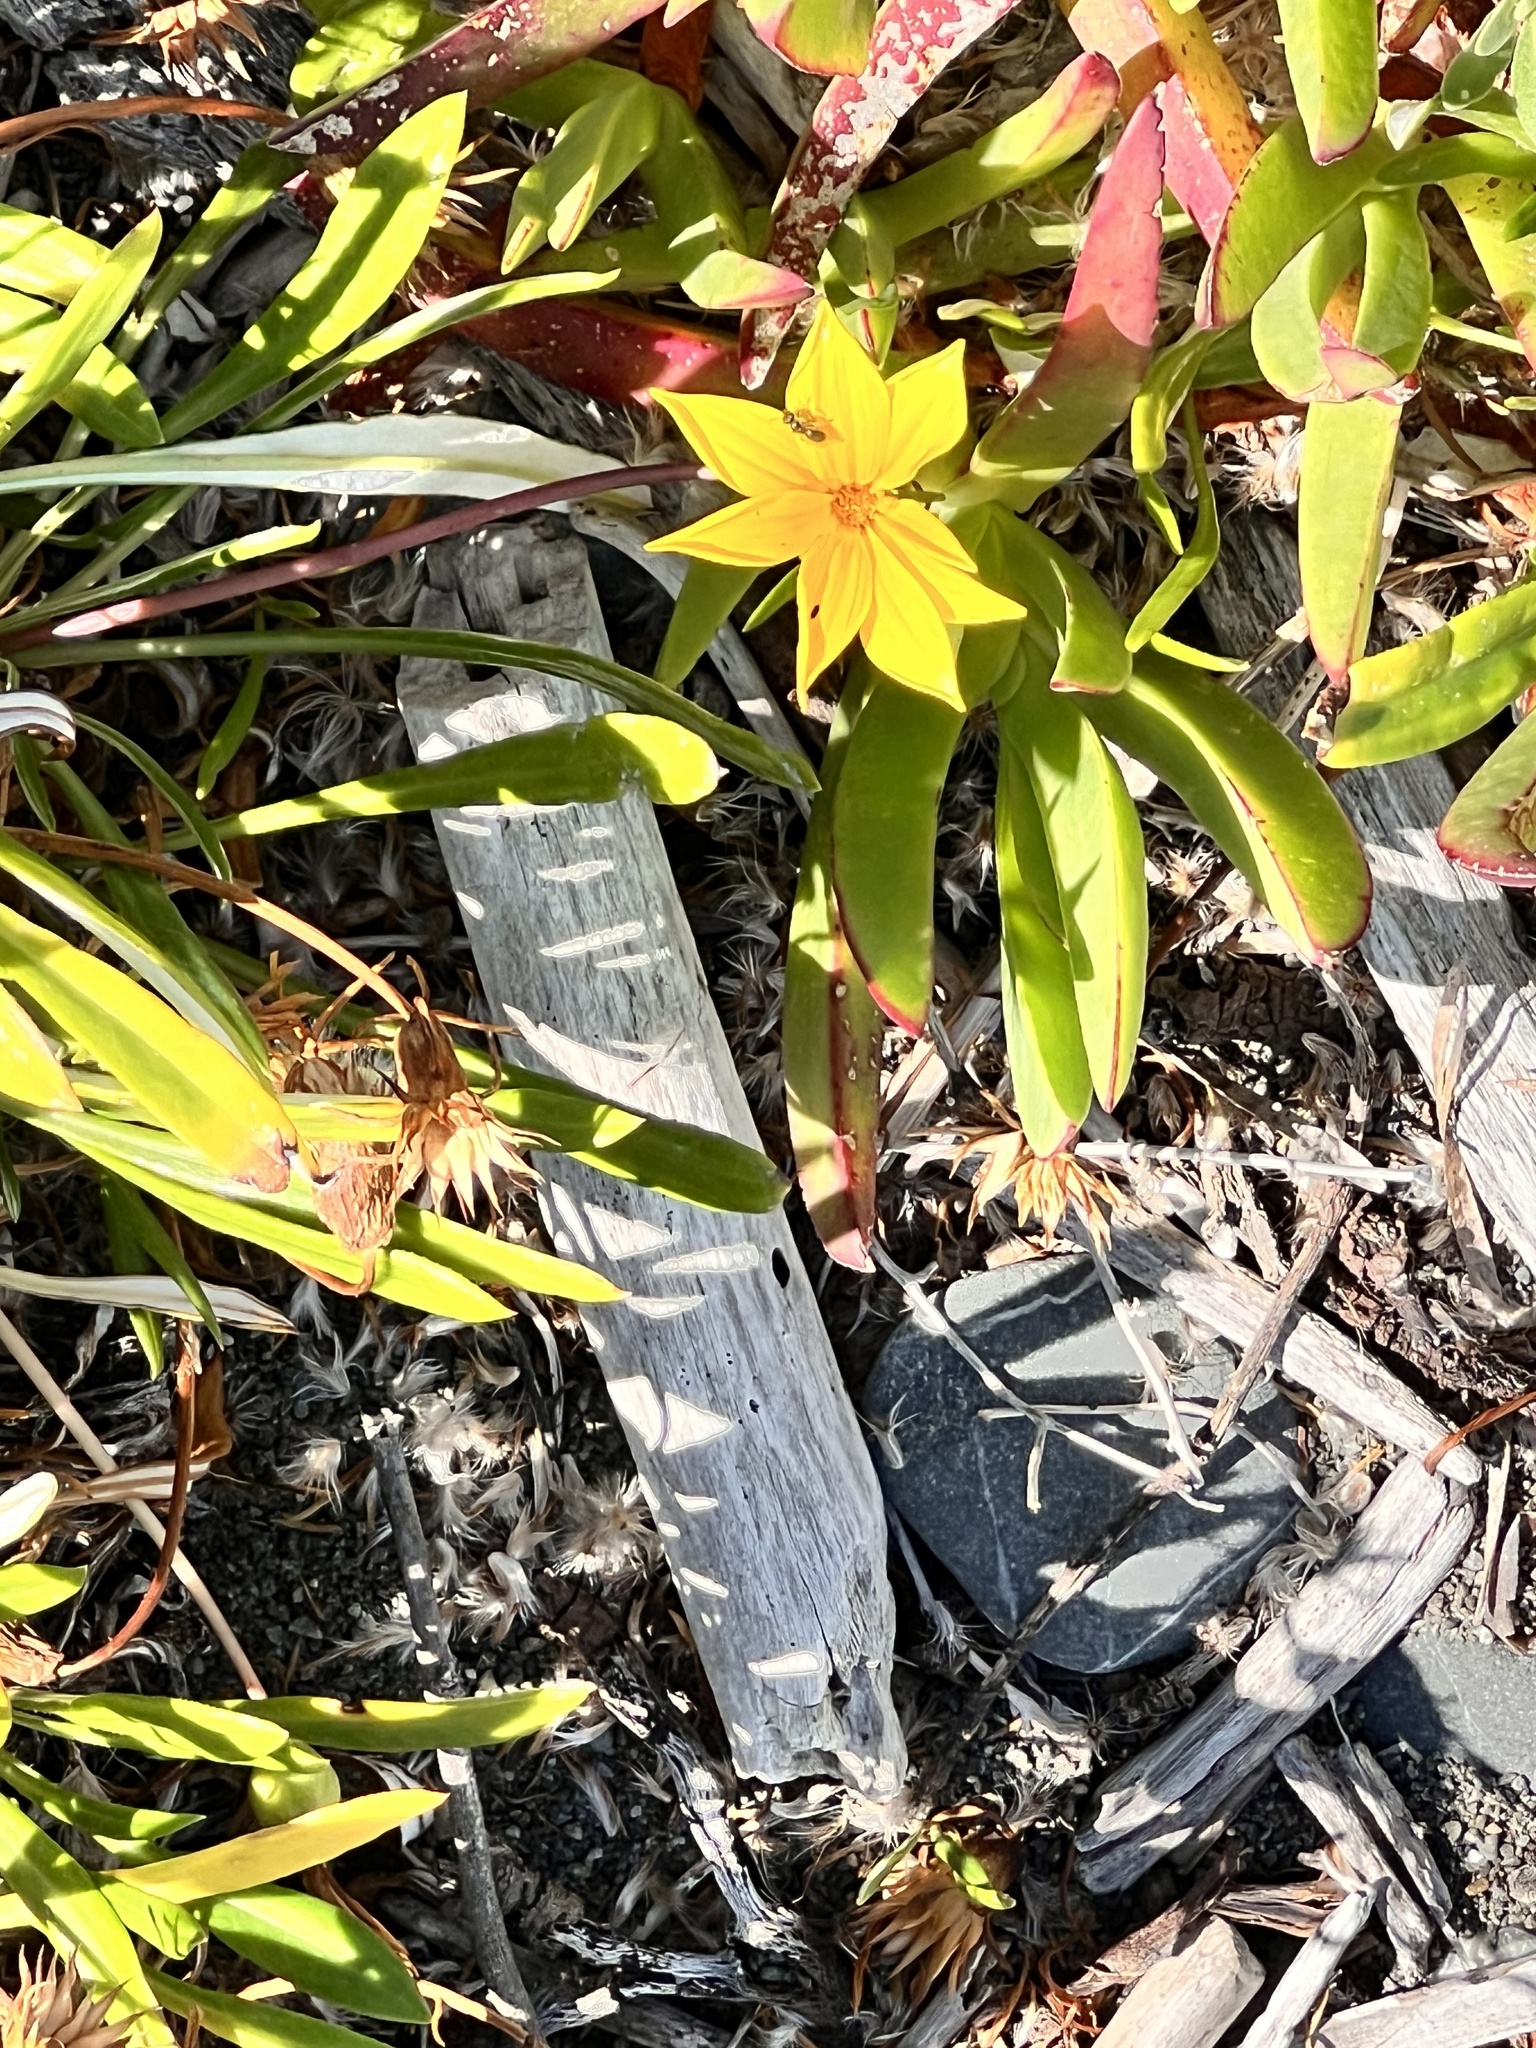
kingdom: Plantae
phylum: Tracheophyta
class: Magnoliopsida
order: Asterales
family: Asteraceae
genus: Gazania
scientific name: Gazania rigens
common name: Treasureflower
